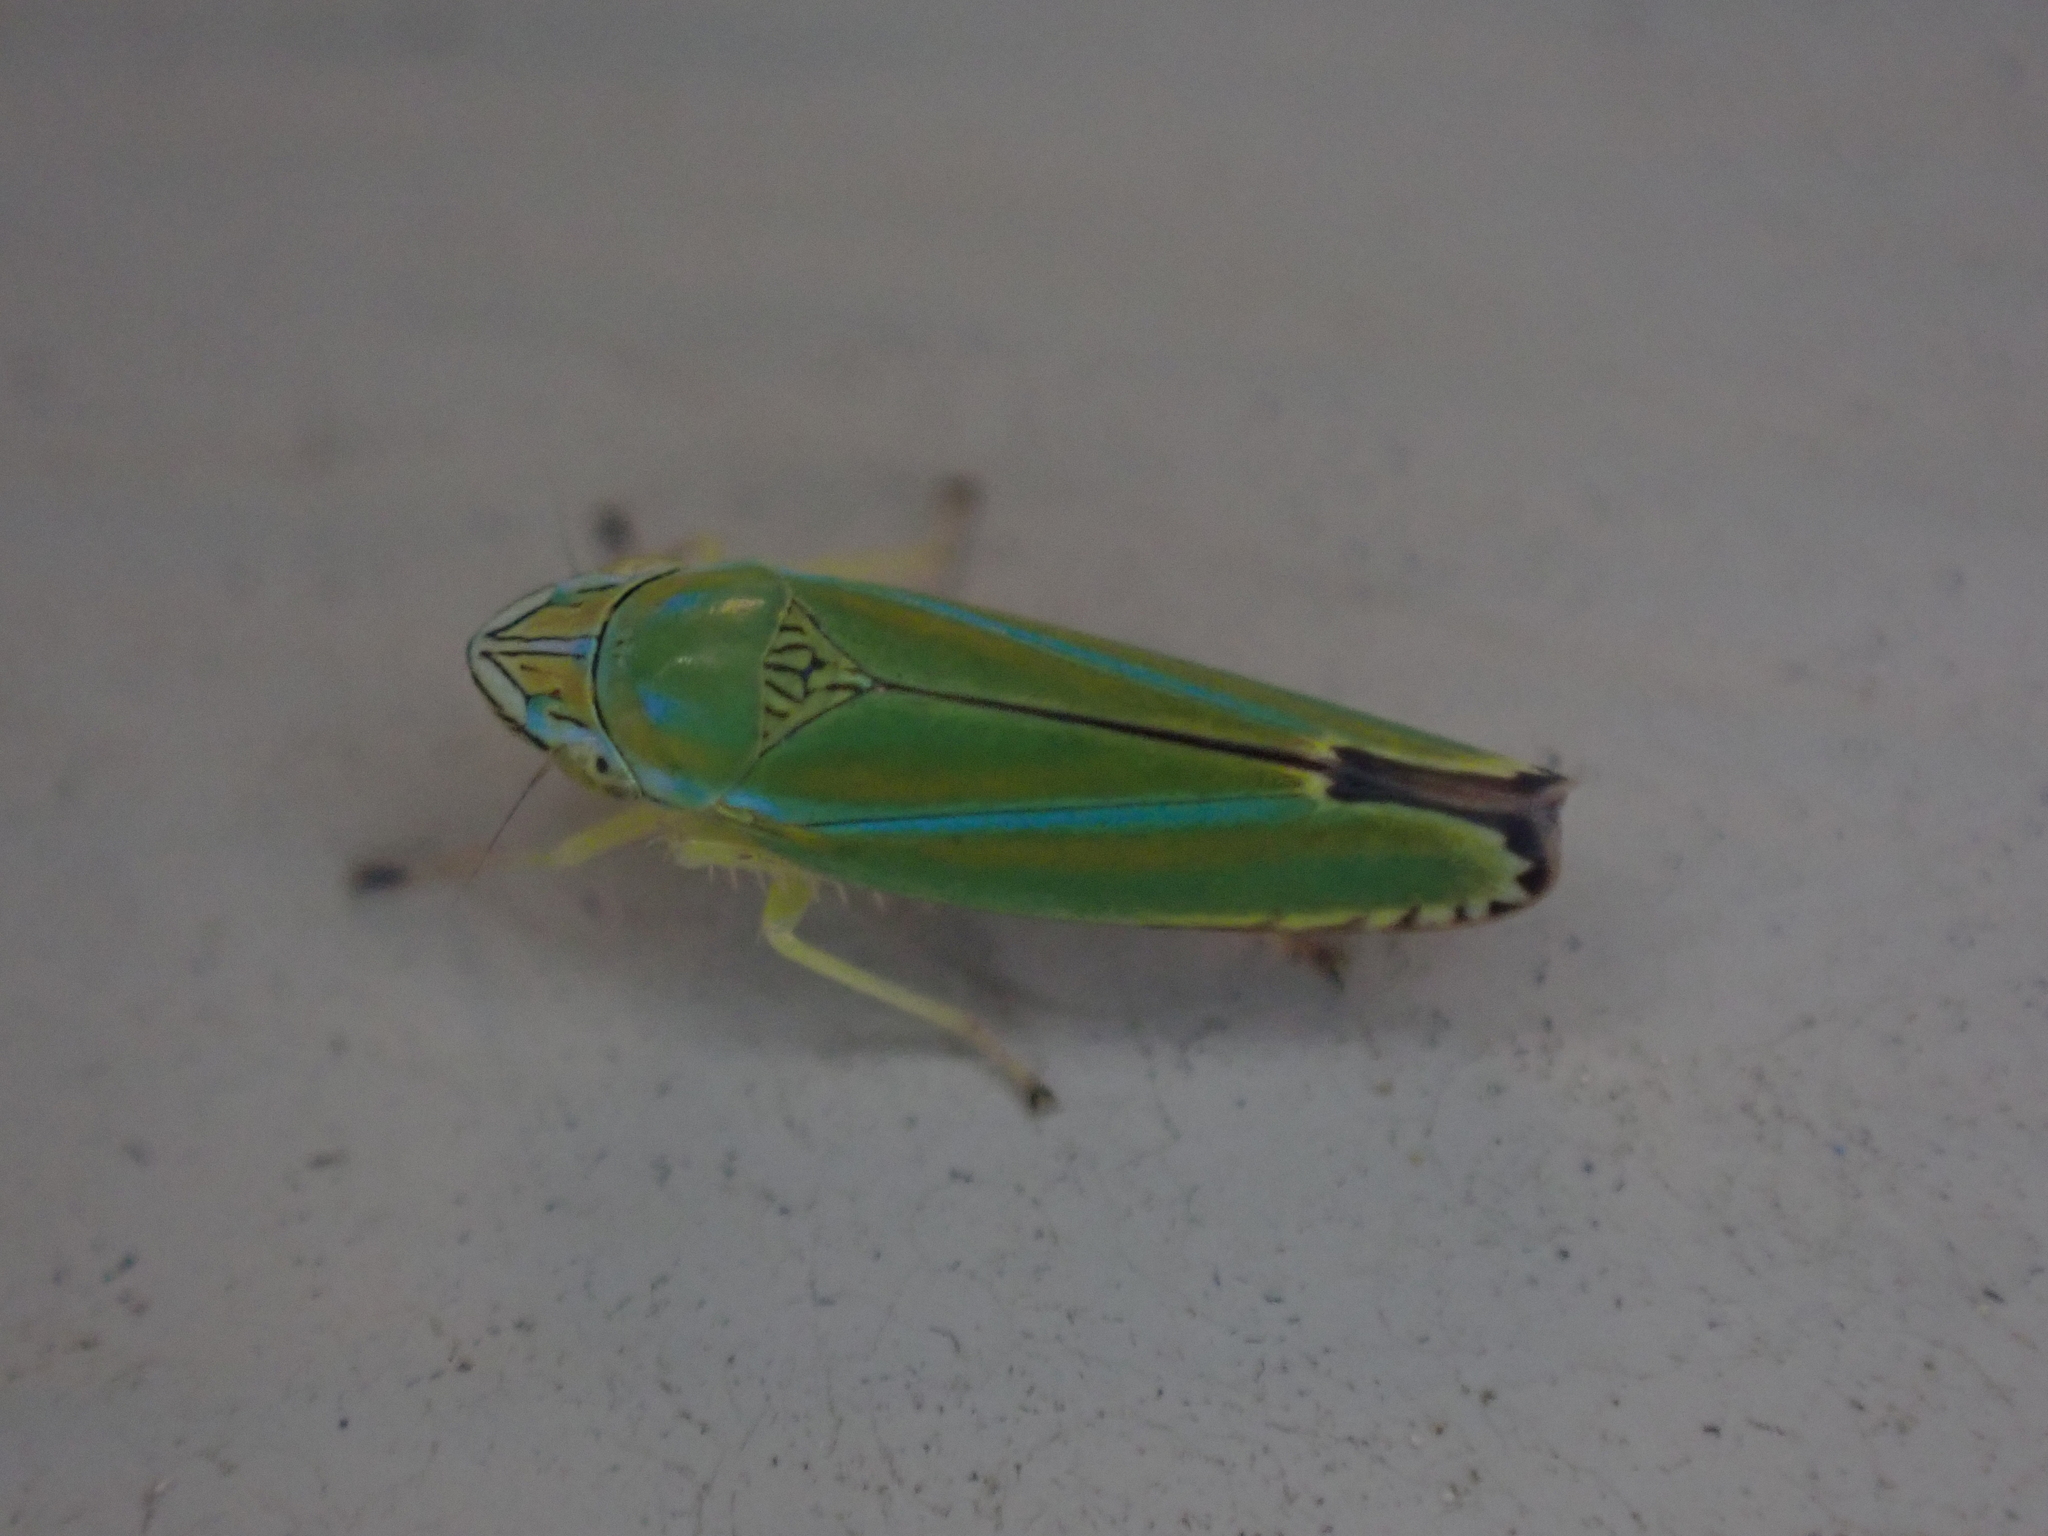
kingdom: Animalia
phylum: Arthropoda
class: Insecta
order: Hemiptera
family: Cicadellidae
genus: Graphocephala
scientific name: Graphocephala versuta
